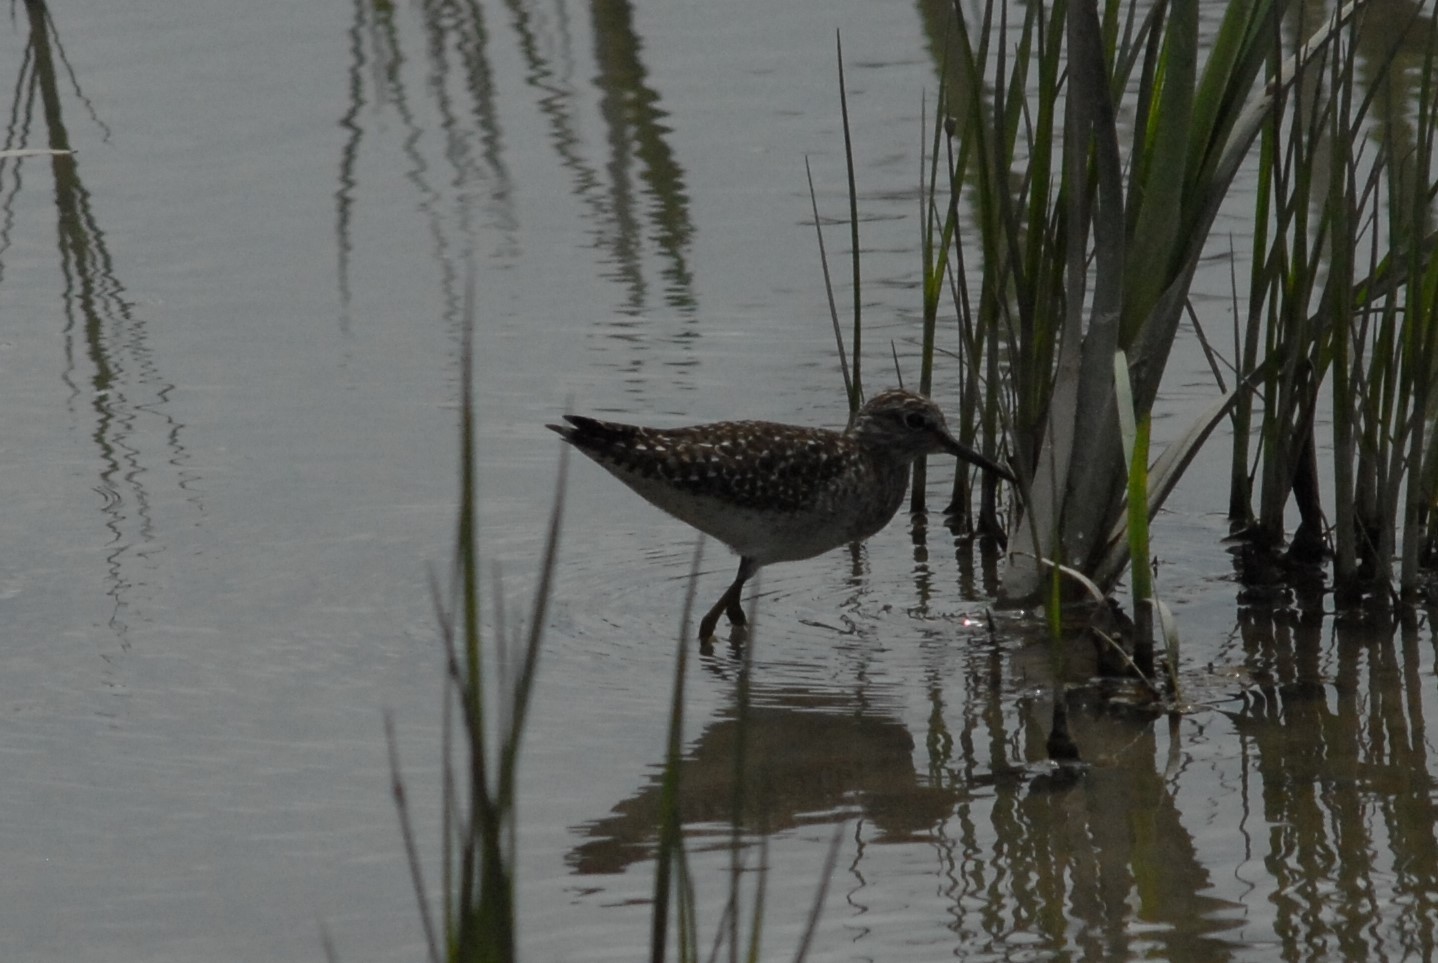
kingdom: Animalia
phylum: Chordata
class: Aves
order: Charadriiformes
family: Scolopacidae
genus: Tringa
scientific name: Tringa glareola
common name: Wood sandpiper
